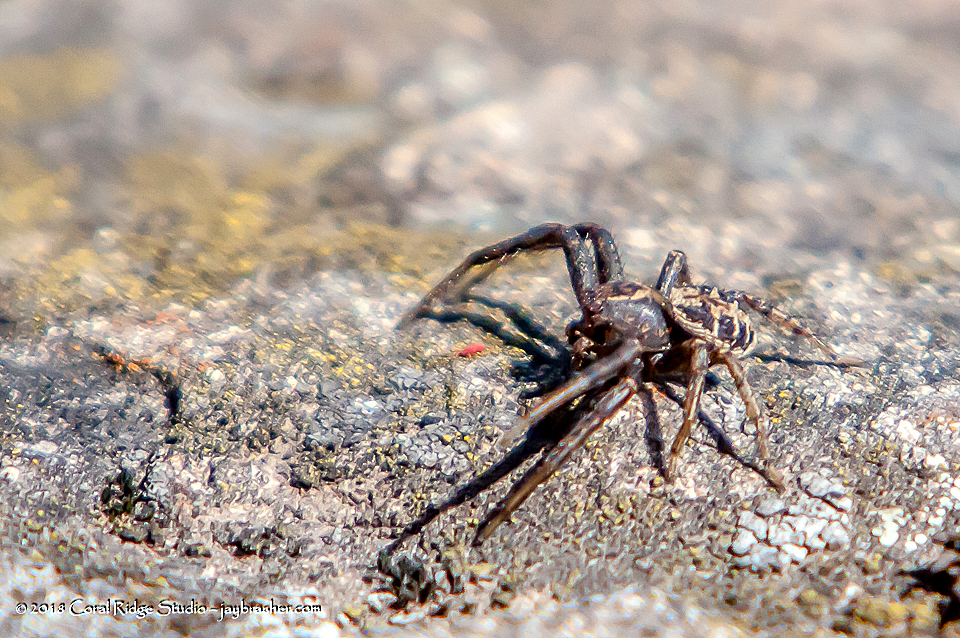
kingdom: Animalia
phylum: Arthropoda
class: Arachnida
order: Araneae
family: Thomisidae
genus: Xysticus
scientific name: Xysticus emertoni
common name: Emerton's crab spider
